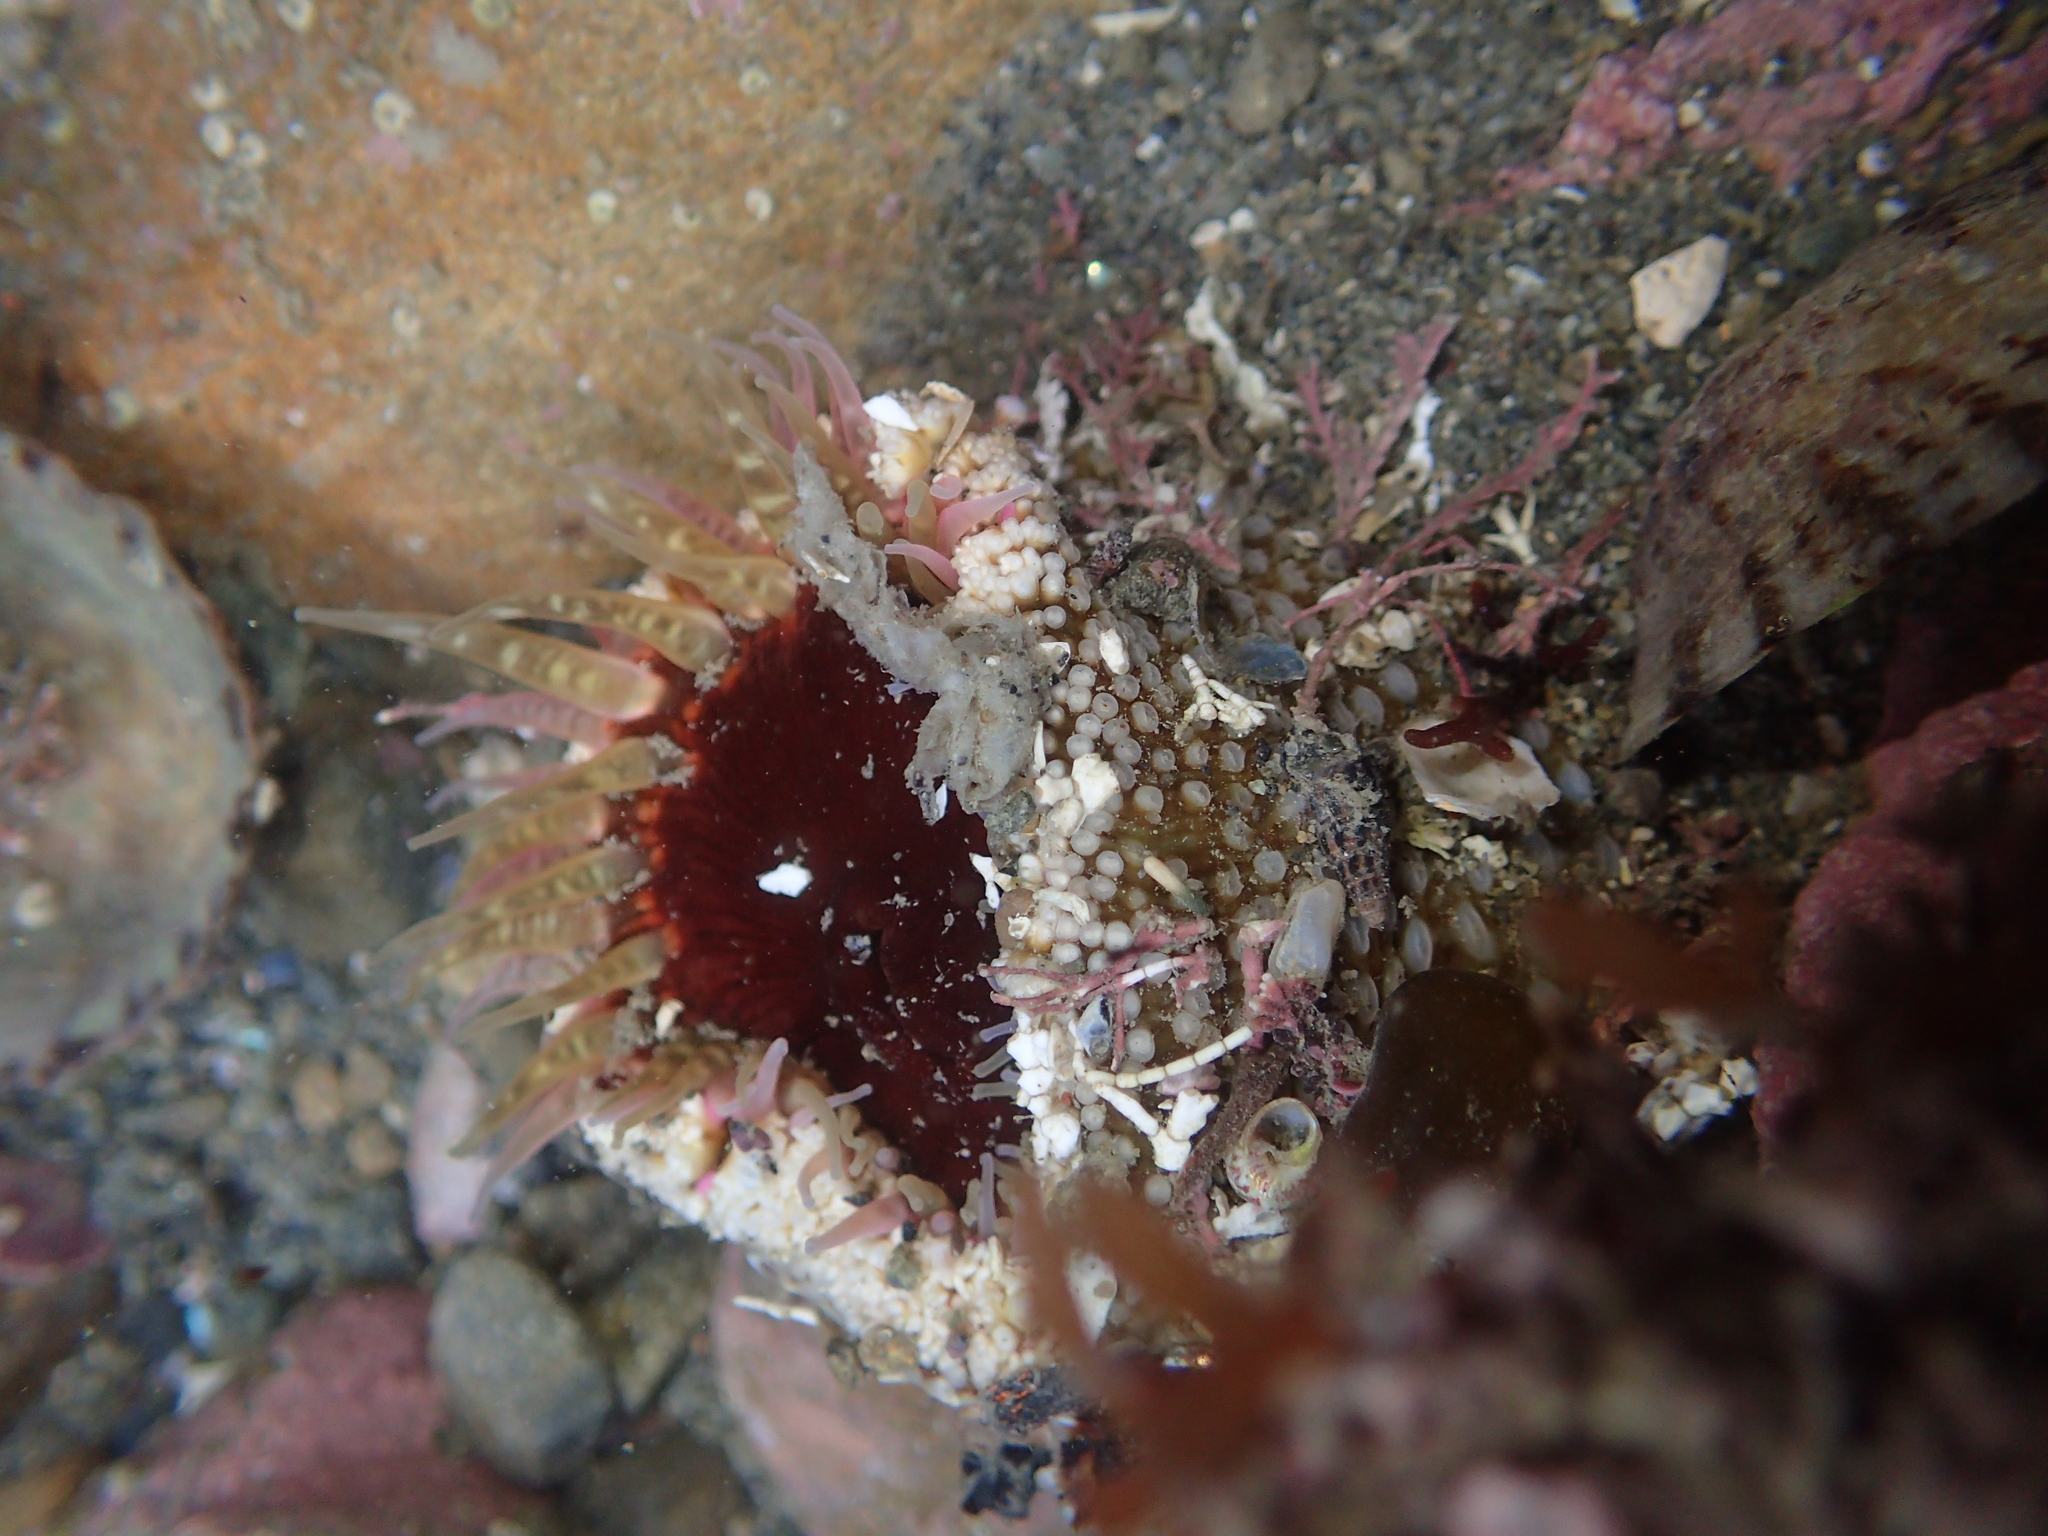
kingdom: Animalia
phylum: Cnidaria
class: Anthozoa
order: Actiniaria
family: Actiniidae
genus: Oulactis
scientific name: Oulactis muscosa
